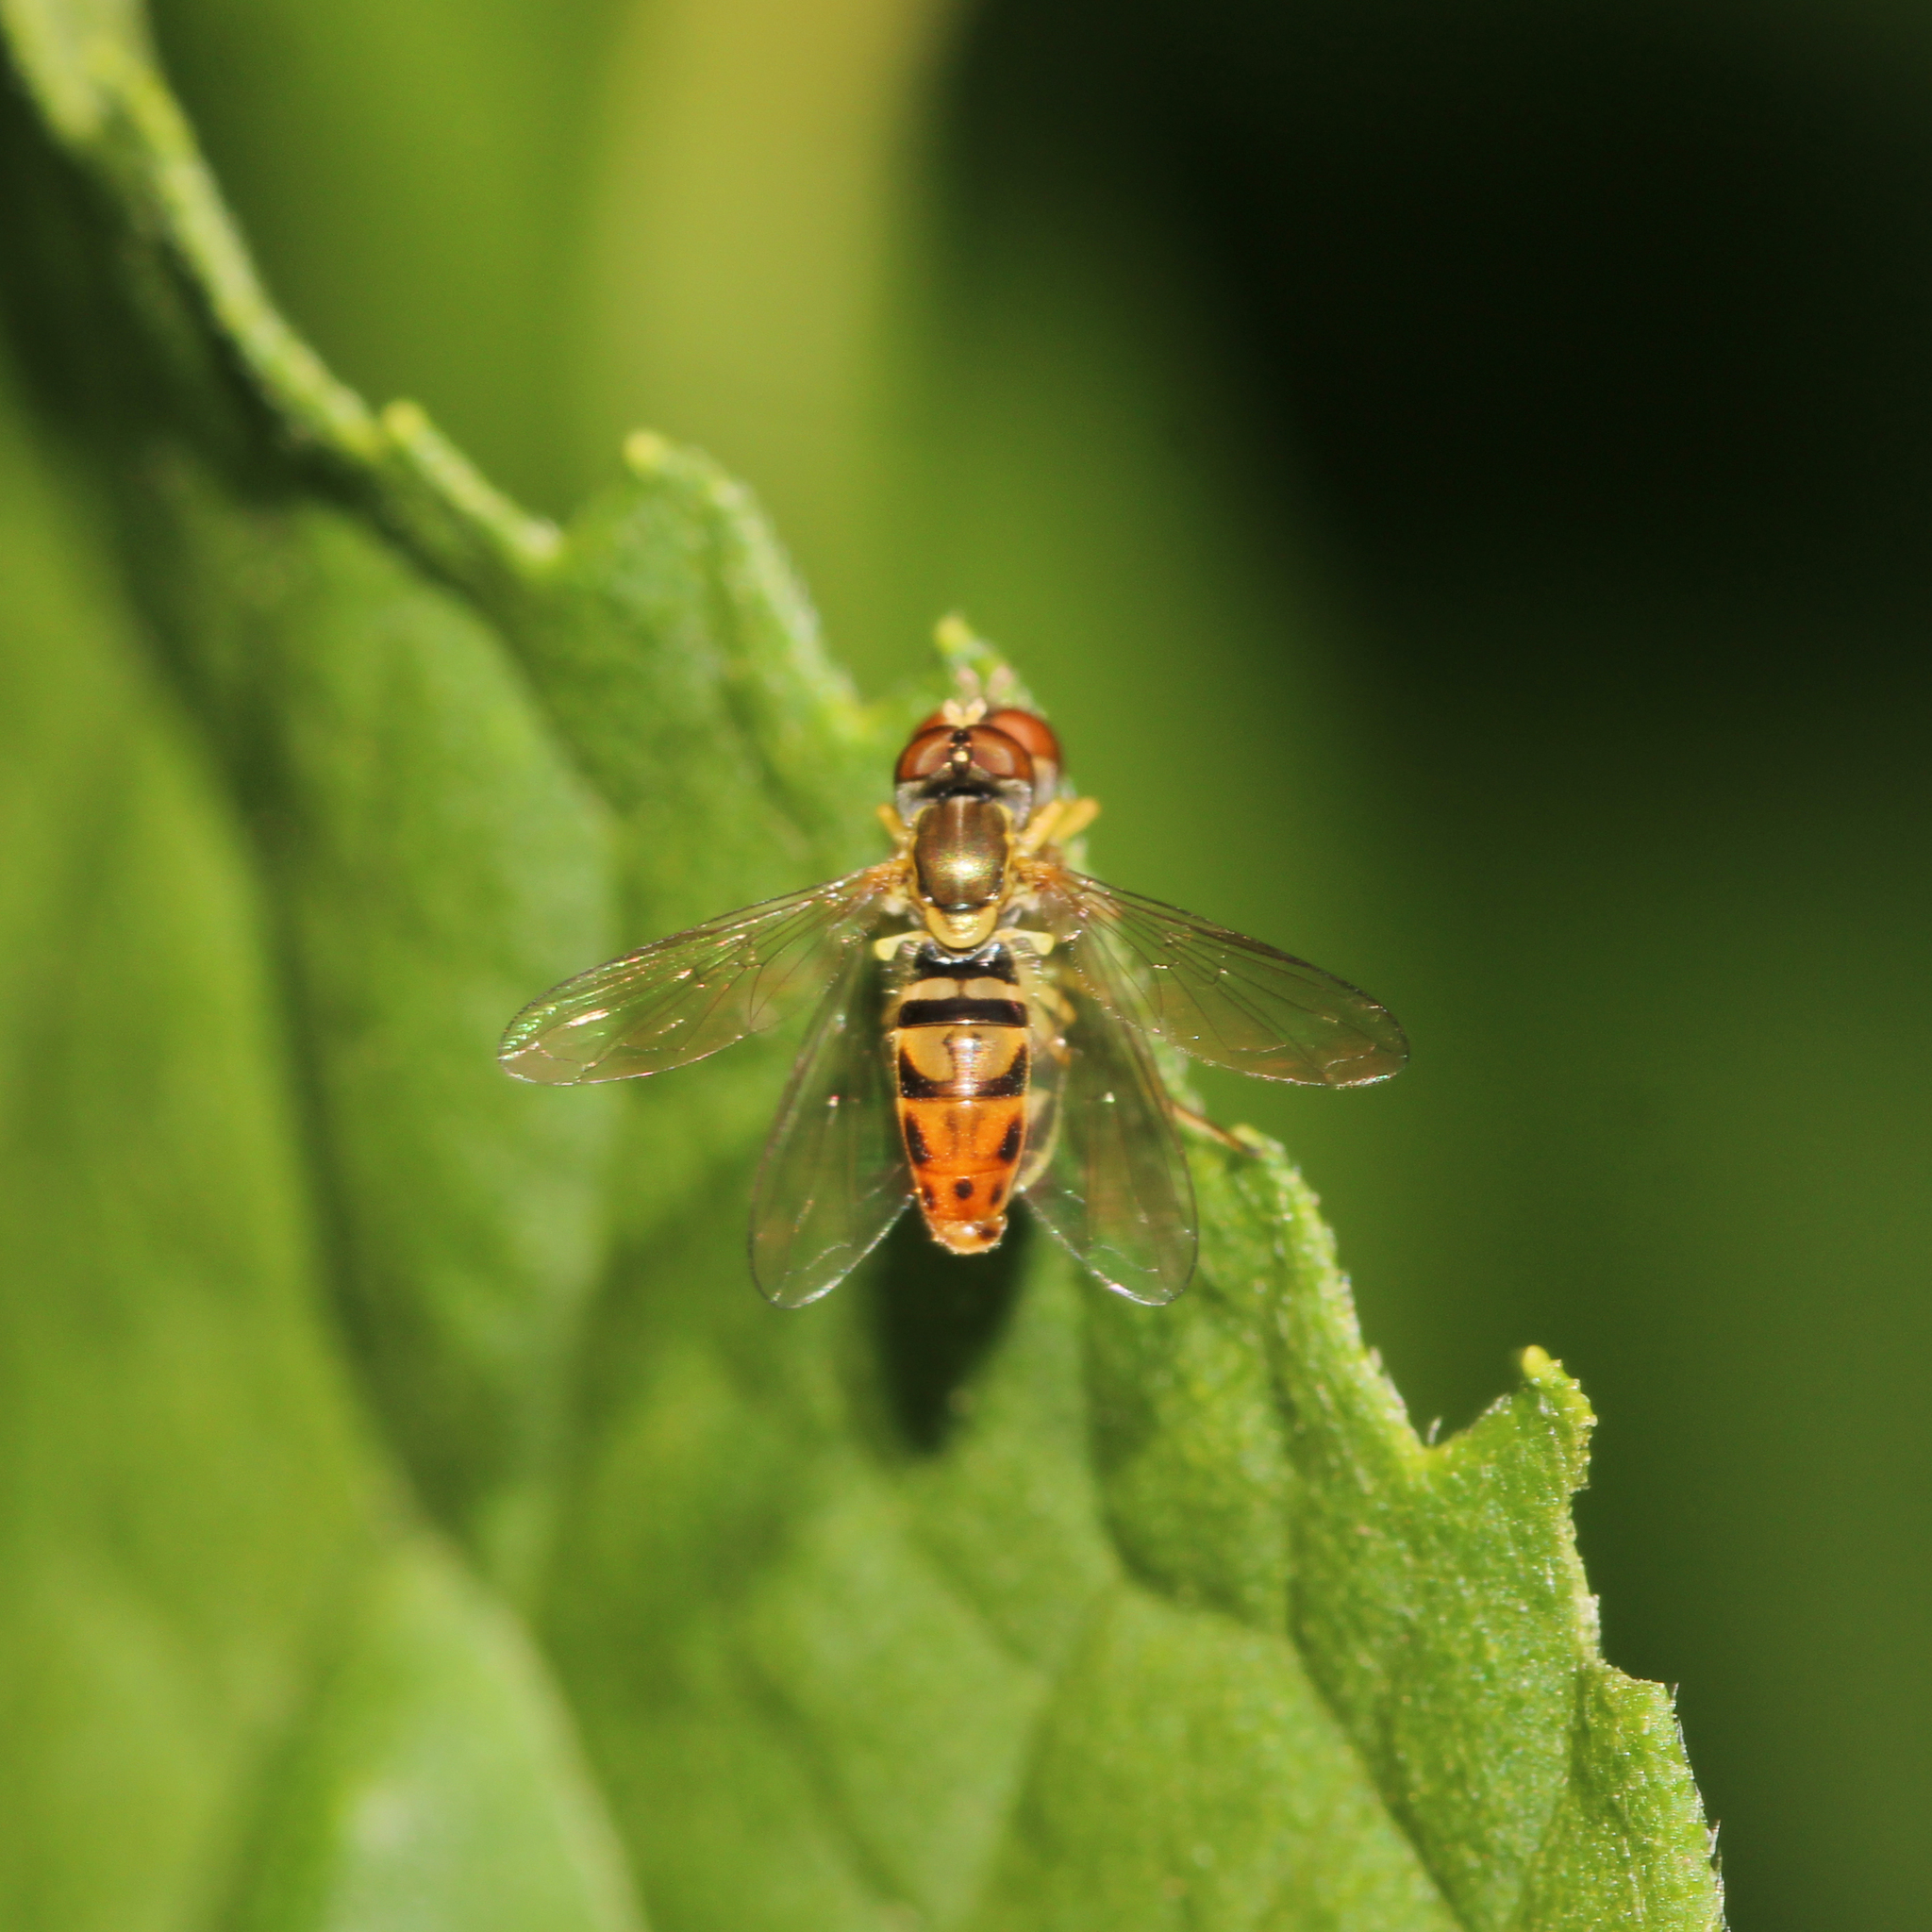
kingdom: Animalia
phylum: Arthropoda
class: Insecta
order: Diptera
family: Syrphidae
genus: Toxomerus
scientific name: Toxomerus marginatus
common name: Syrphid fly
